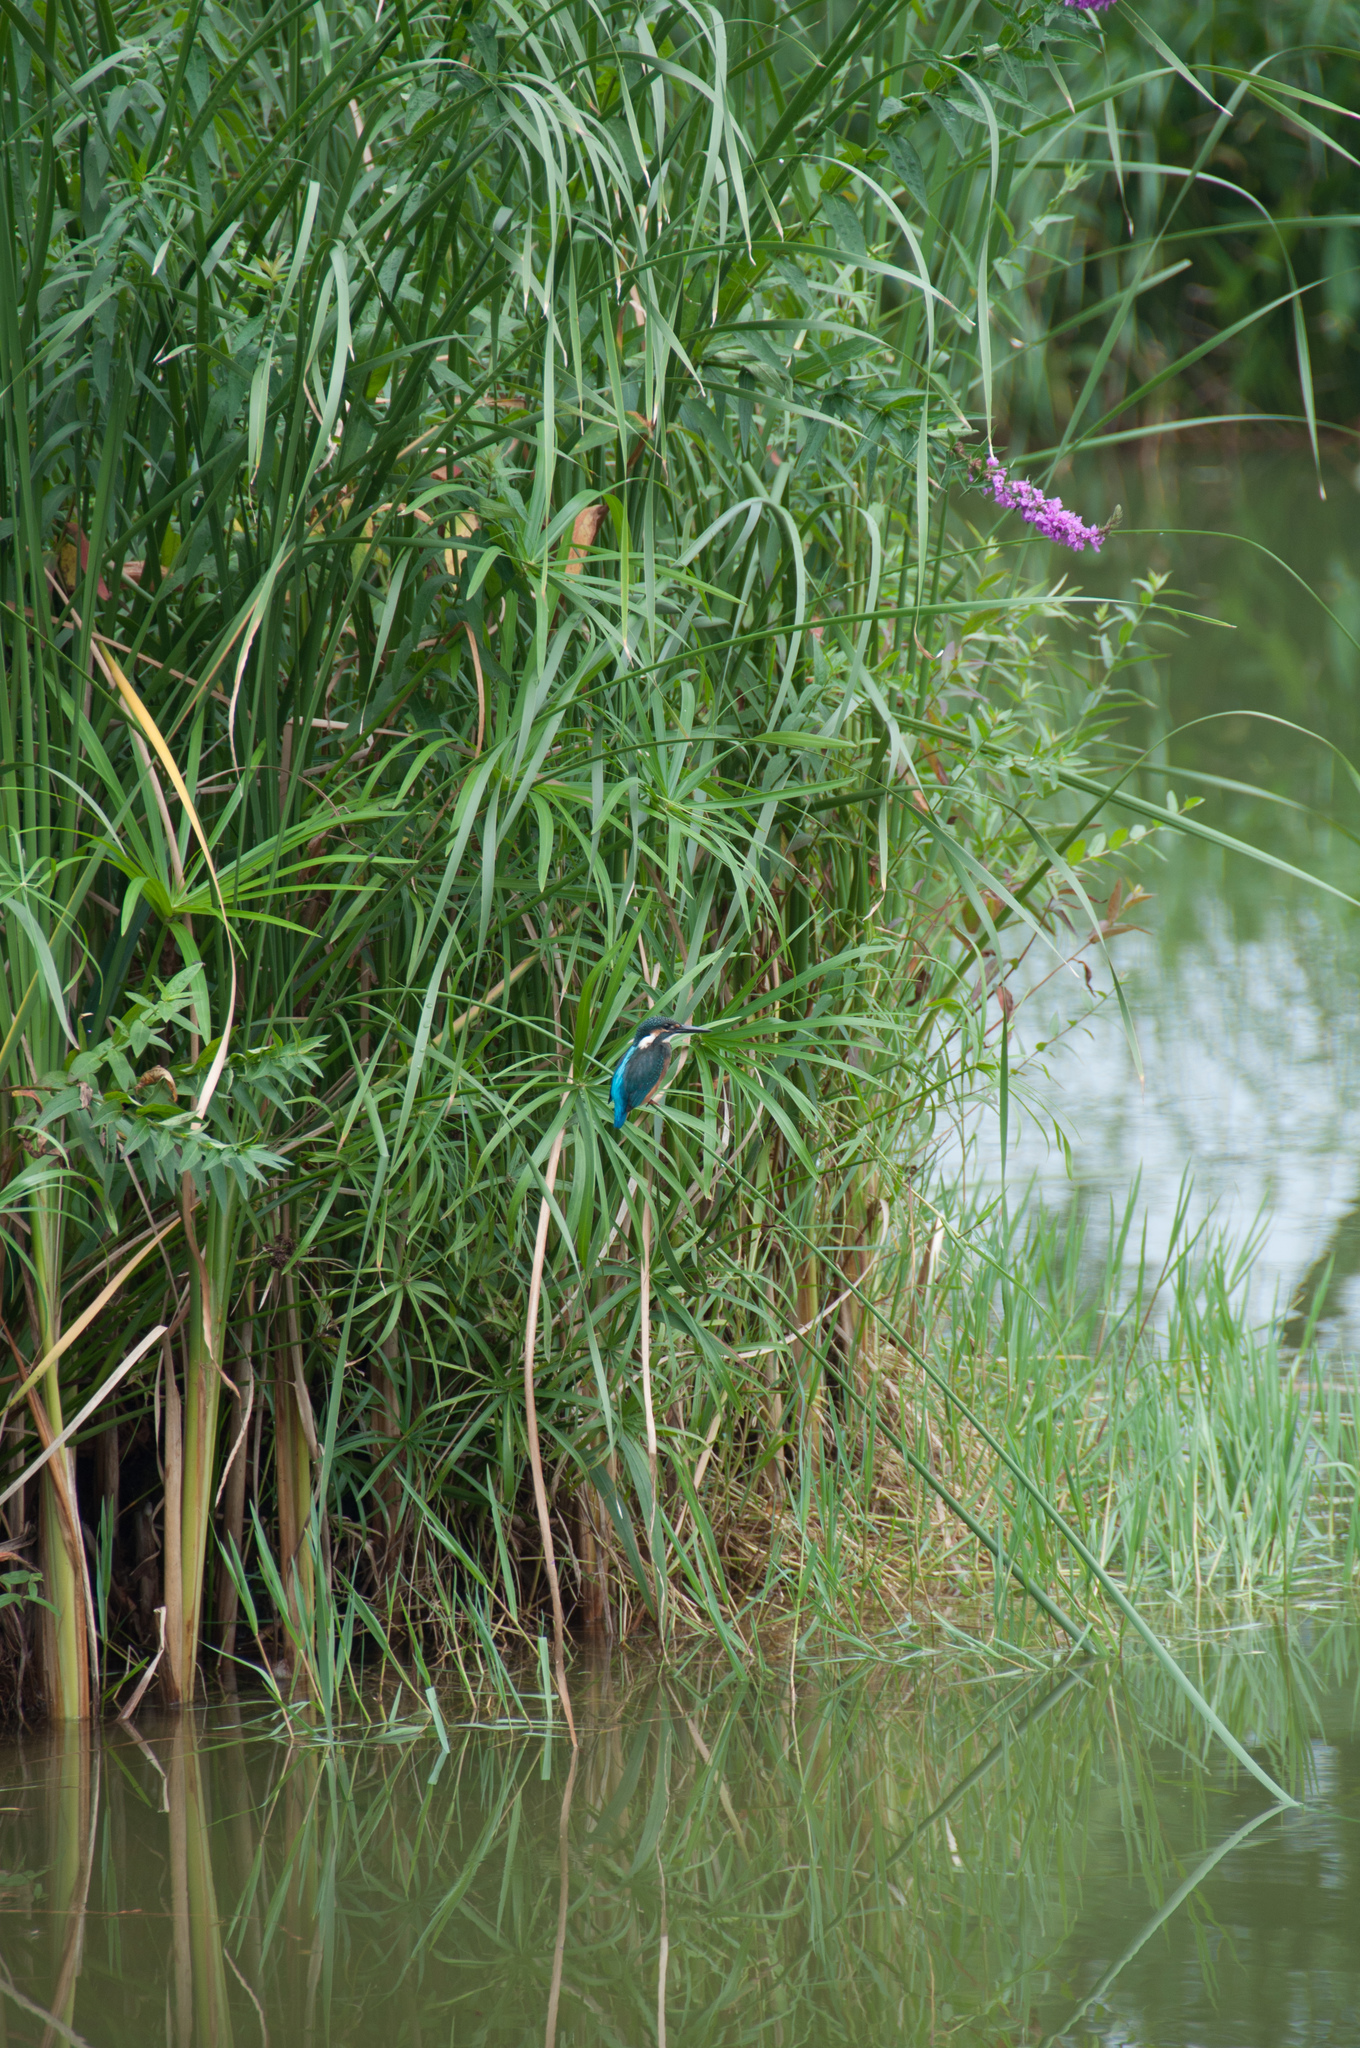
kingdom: Animalia
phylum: Chordata
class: Aves
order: Coraciiformes
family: Alcedinidae
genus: Alcedo
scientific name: Alcedo atthis
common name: Common kingfisher
